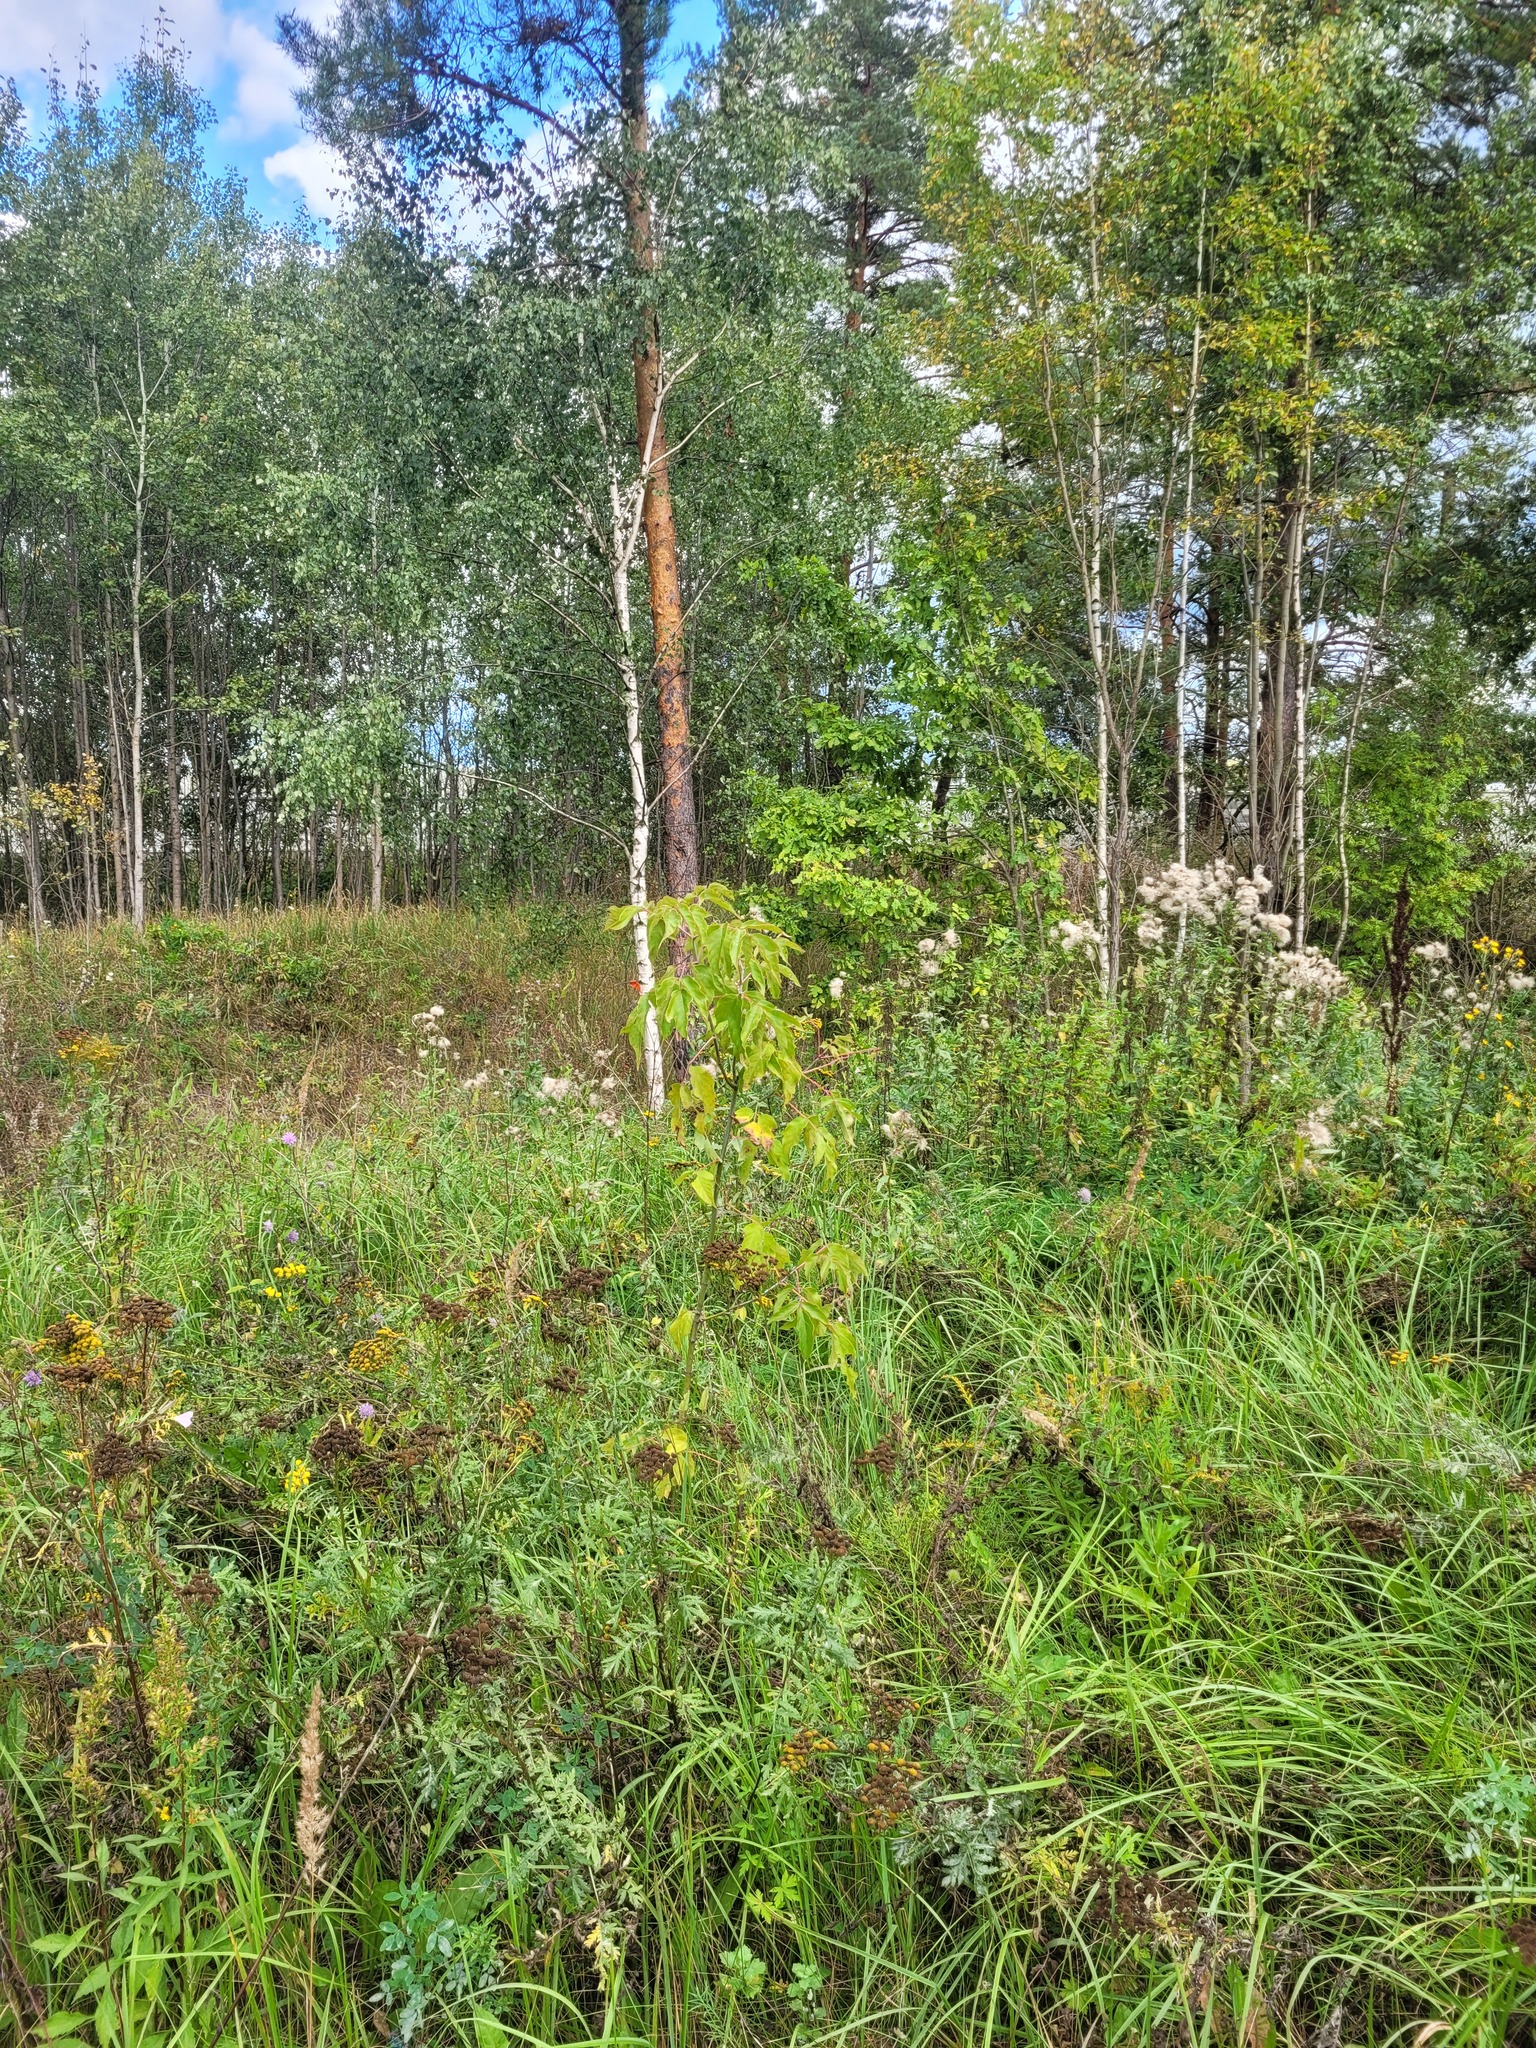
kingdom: Plantae
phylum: Tracheophyta
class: Magnoliopsida
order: Sapindales
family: Sapindaceae
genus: Acer
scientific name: Acer negundo
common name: Ashleaf maple
